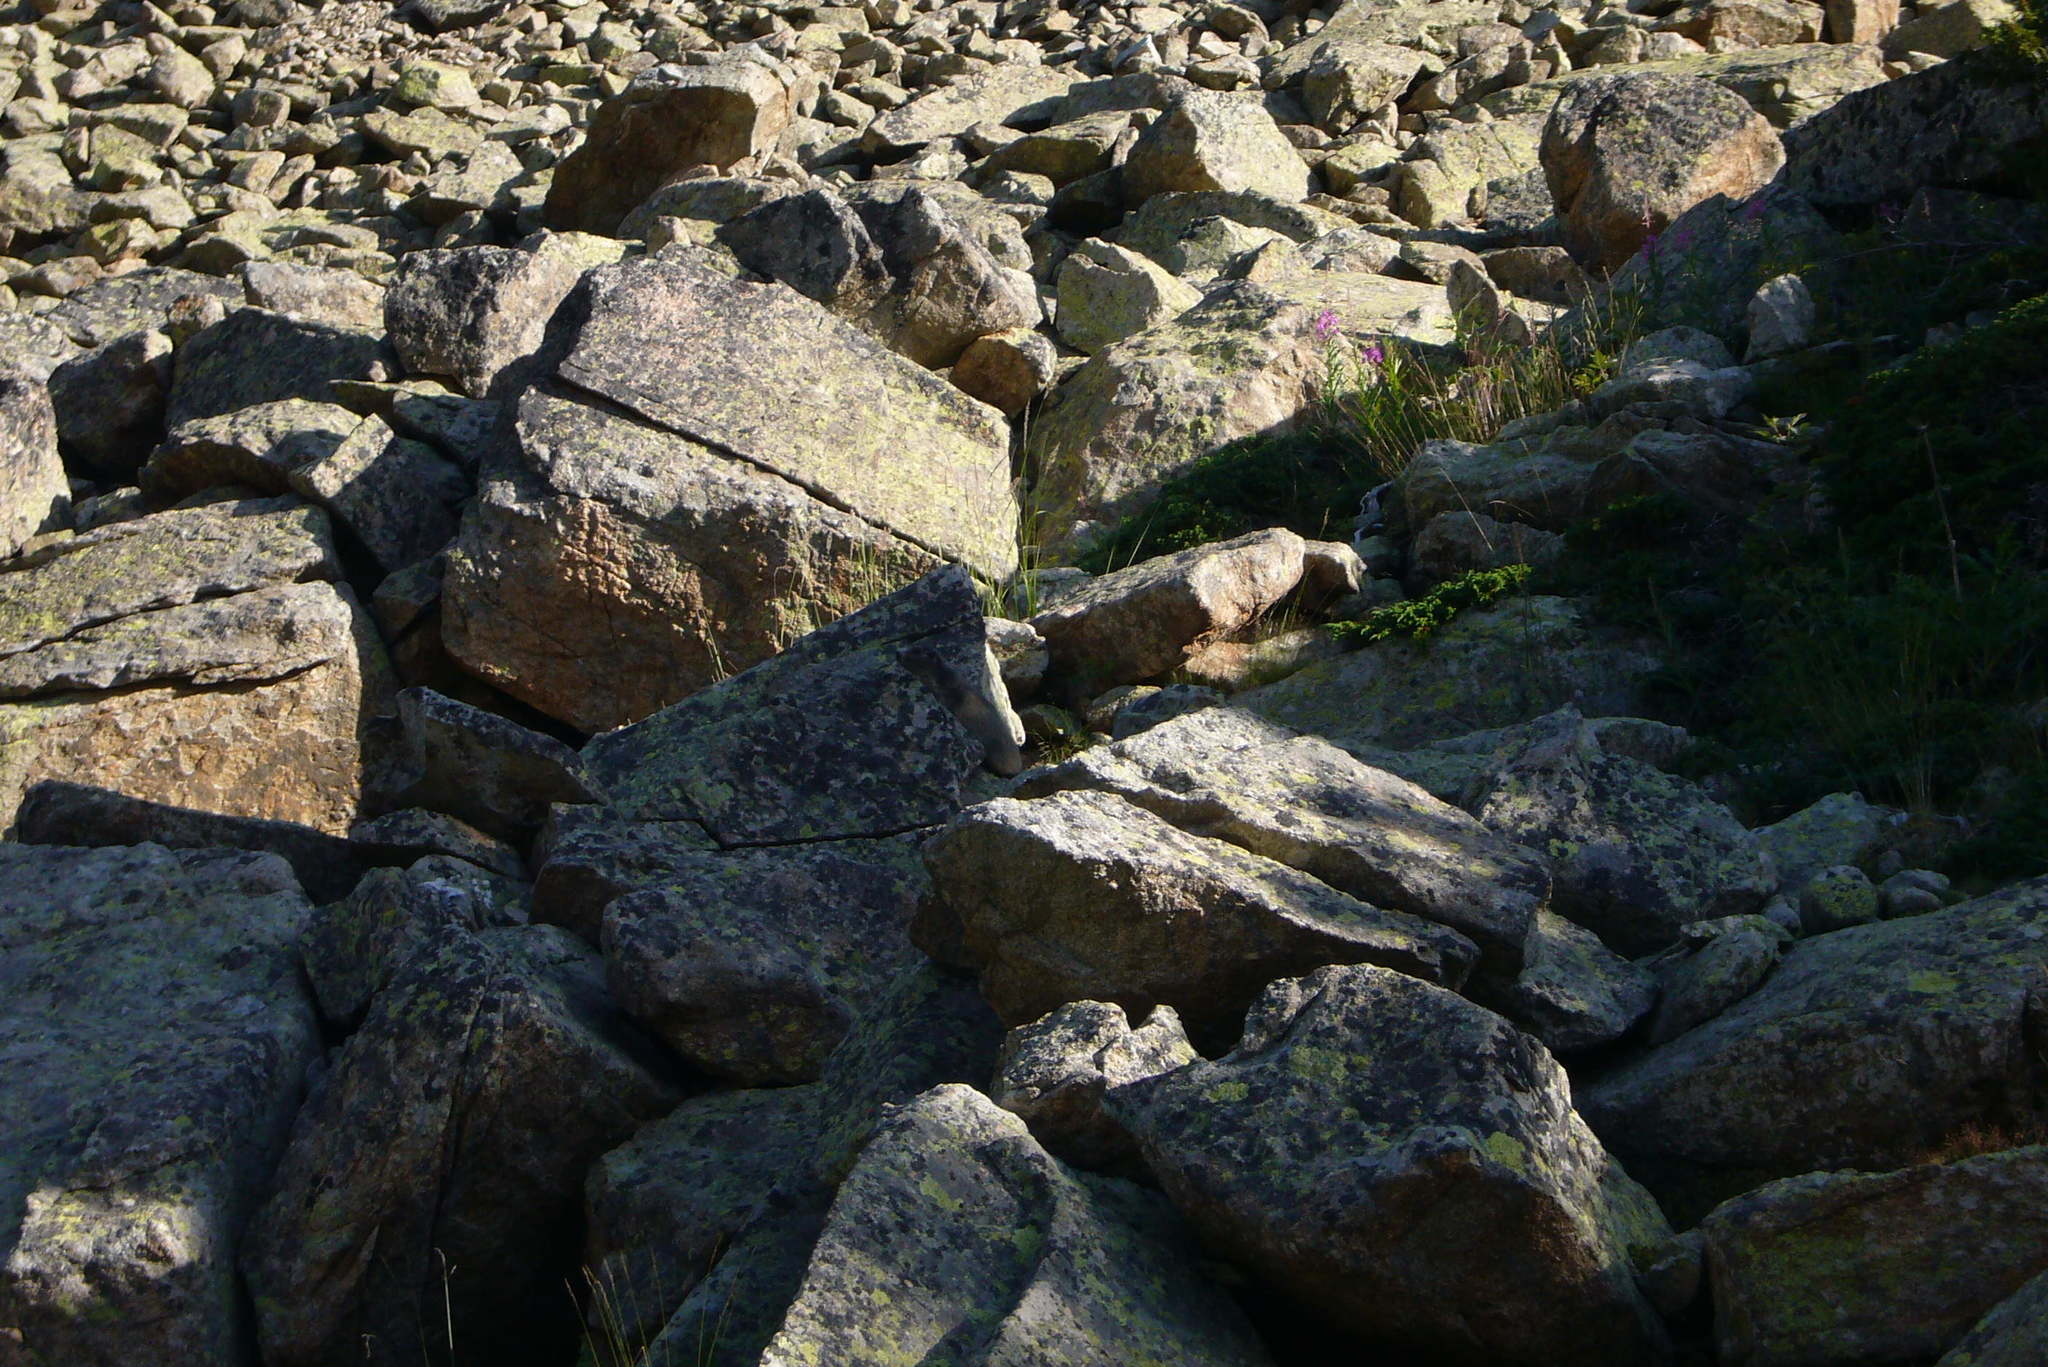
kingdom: Animalia
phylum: Chordata
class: Mammalia
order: Rodentia
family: Sciuridae
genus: Marmota
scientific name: Marmota marmota
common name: Alpine marmot
